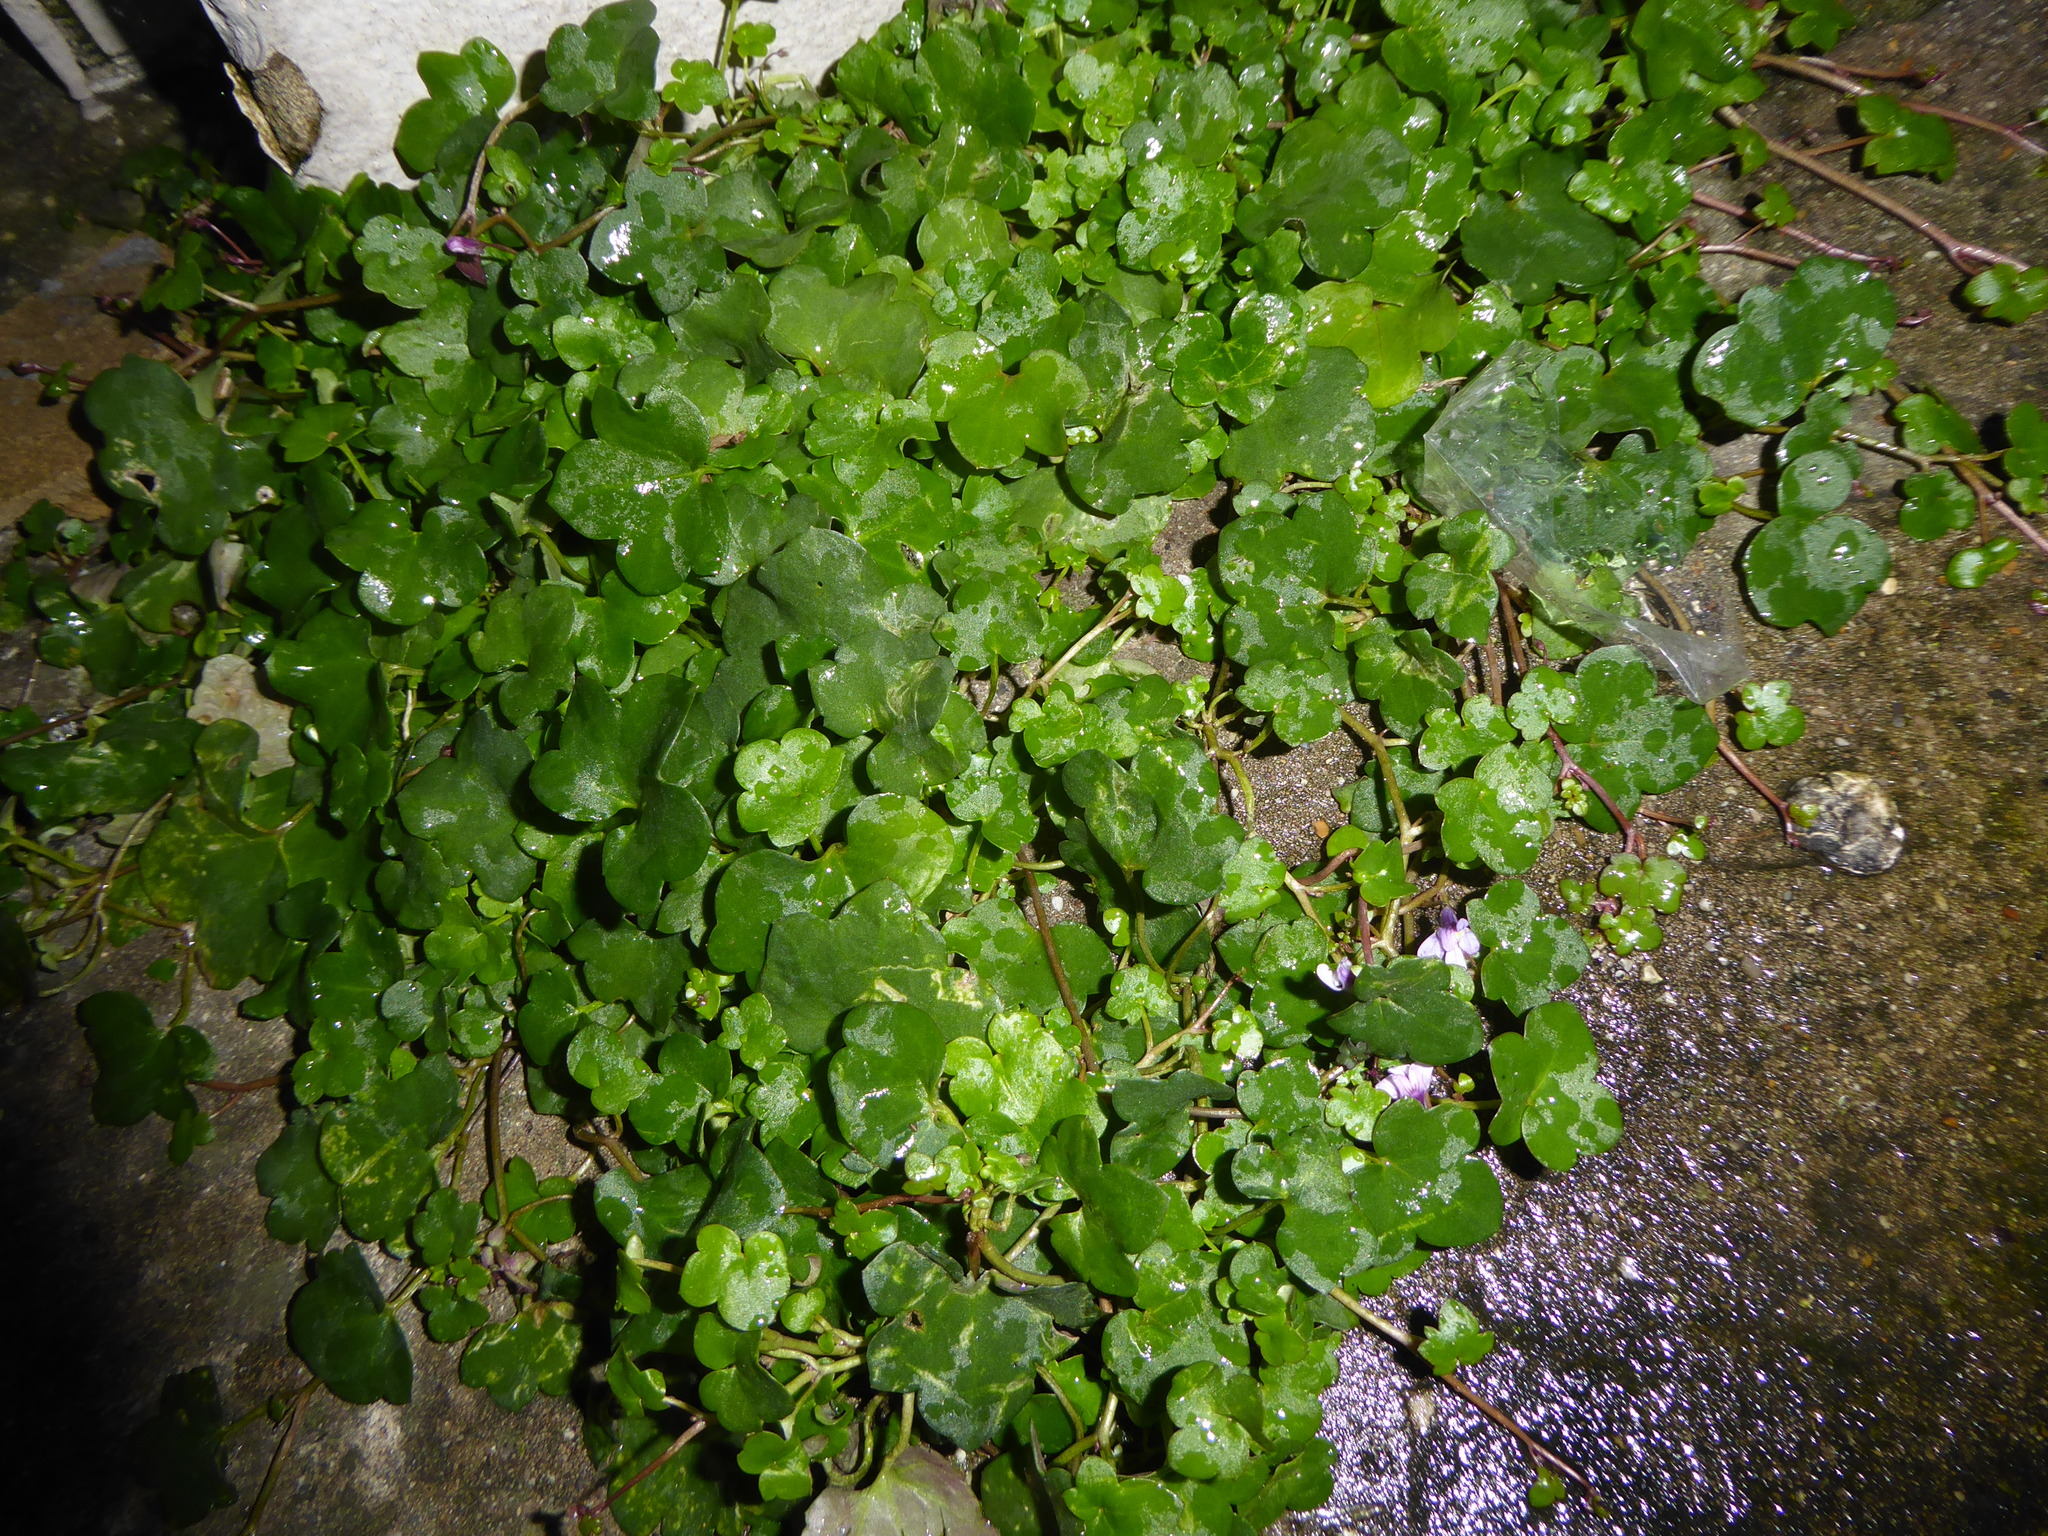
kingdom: Plantae
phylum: Tracheophyta
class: Magnoliopsida
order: Lamiales
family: Plantaginaceae
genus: Cymbalaria
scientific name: Cymbalaria muralis
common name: Ivy-leaved toadflax
